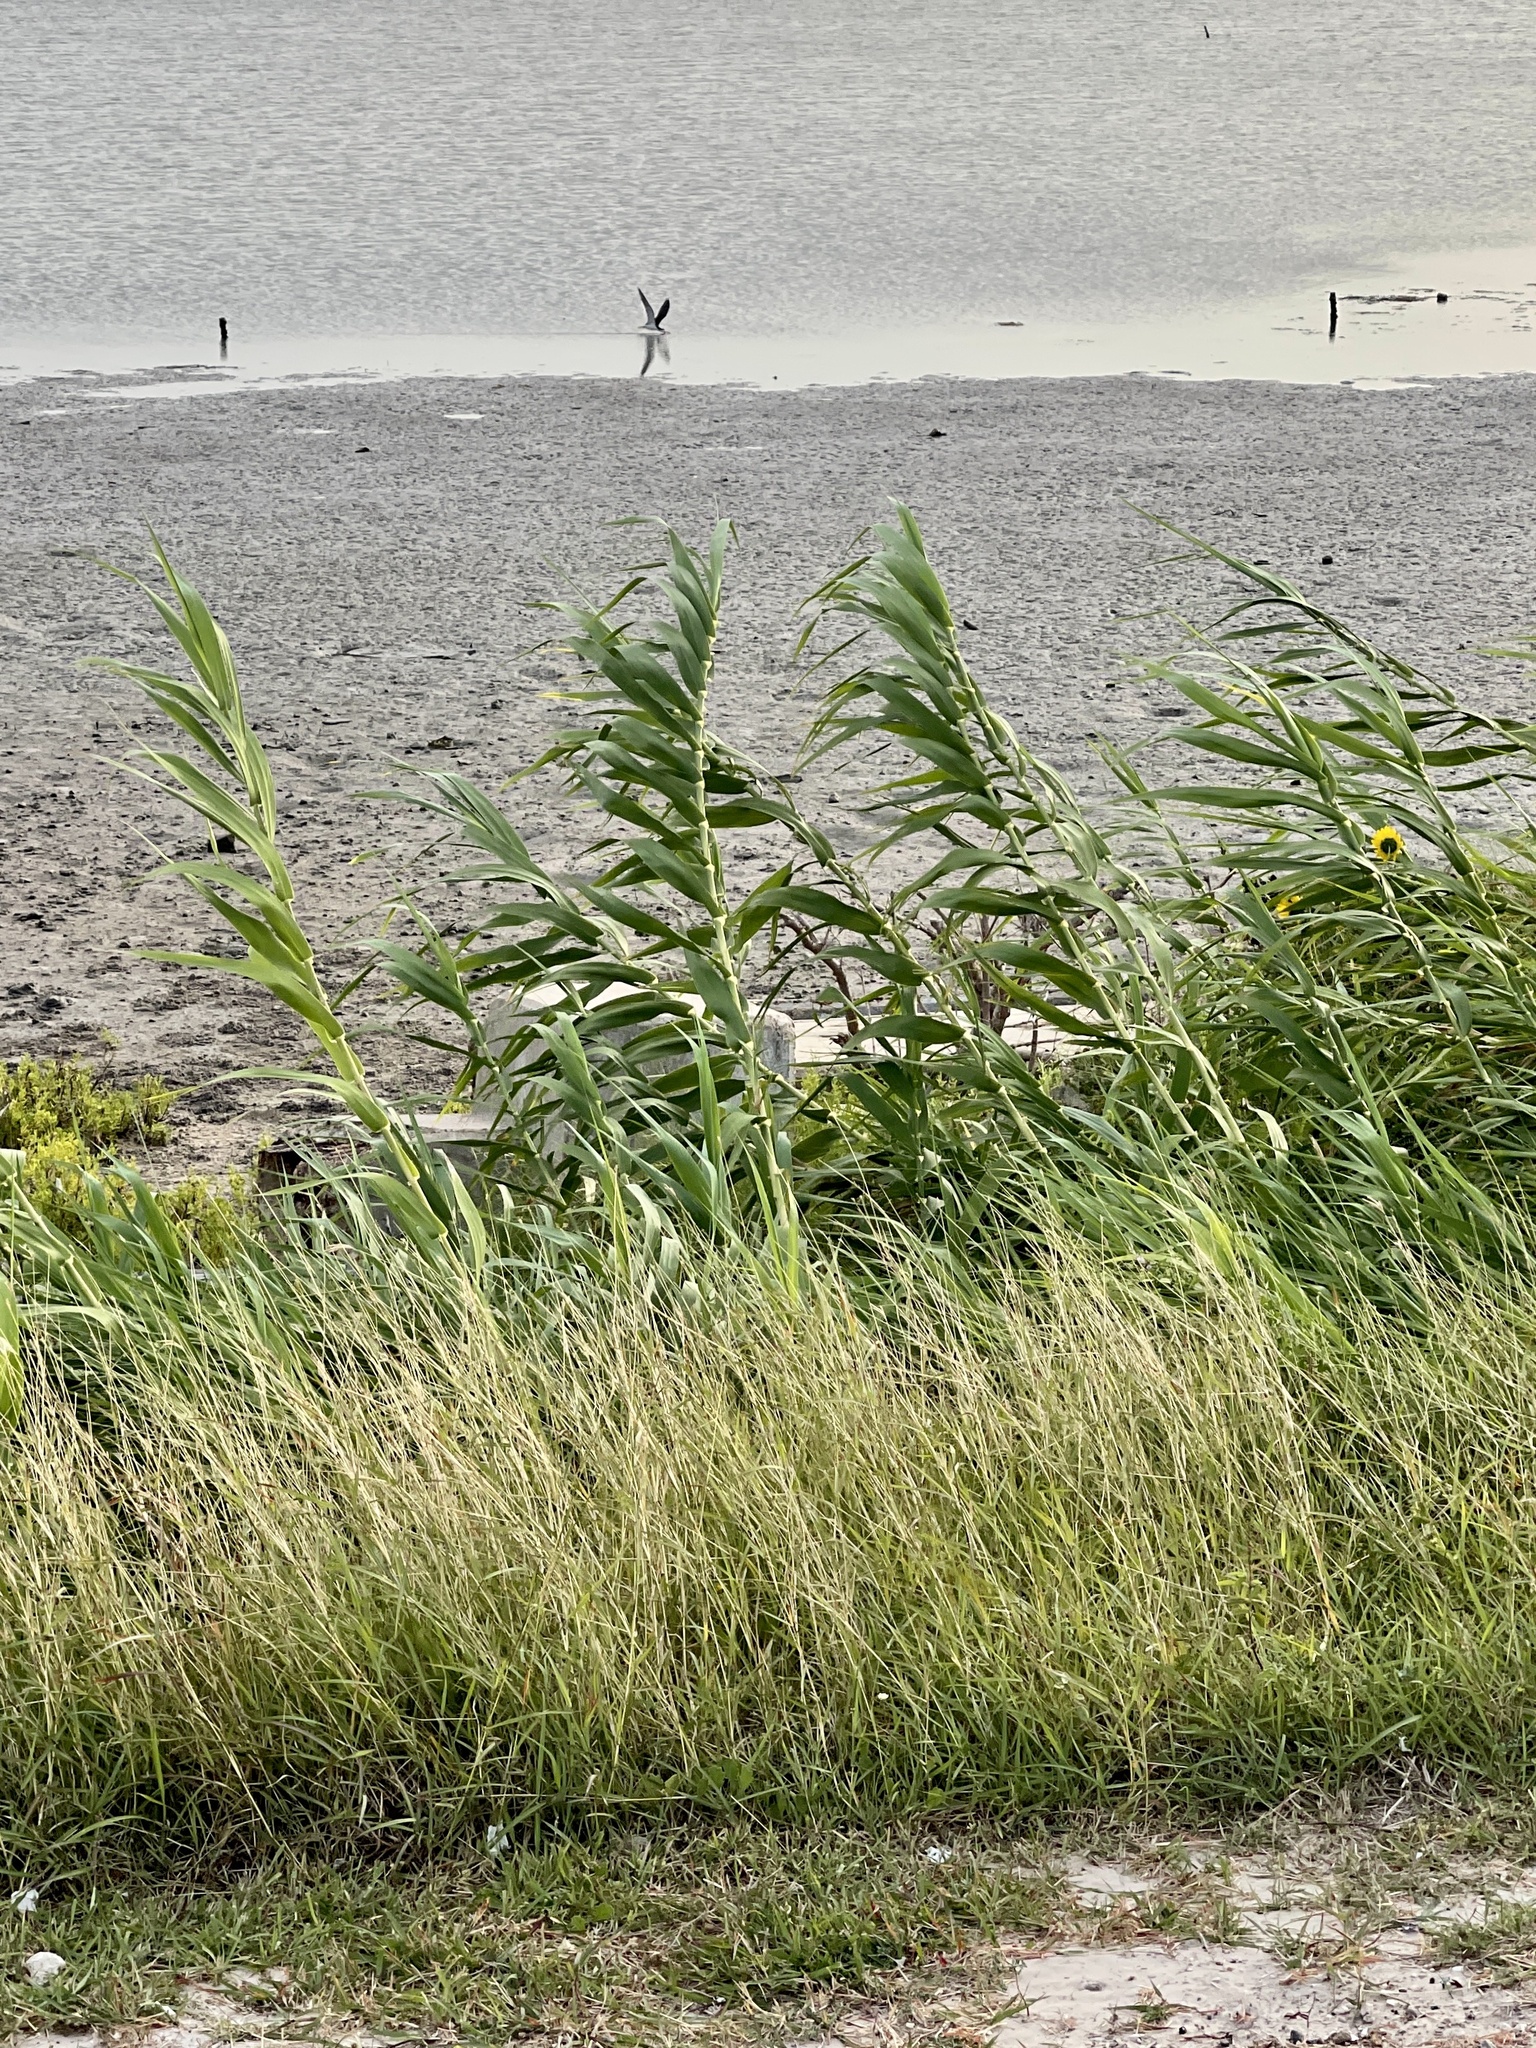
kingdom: Plantae
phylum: Tracheophyta
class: Liliopsida
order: Poales
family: Poaceae
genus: Arundo
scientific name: Arundo donax
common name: Giant reed
